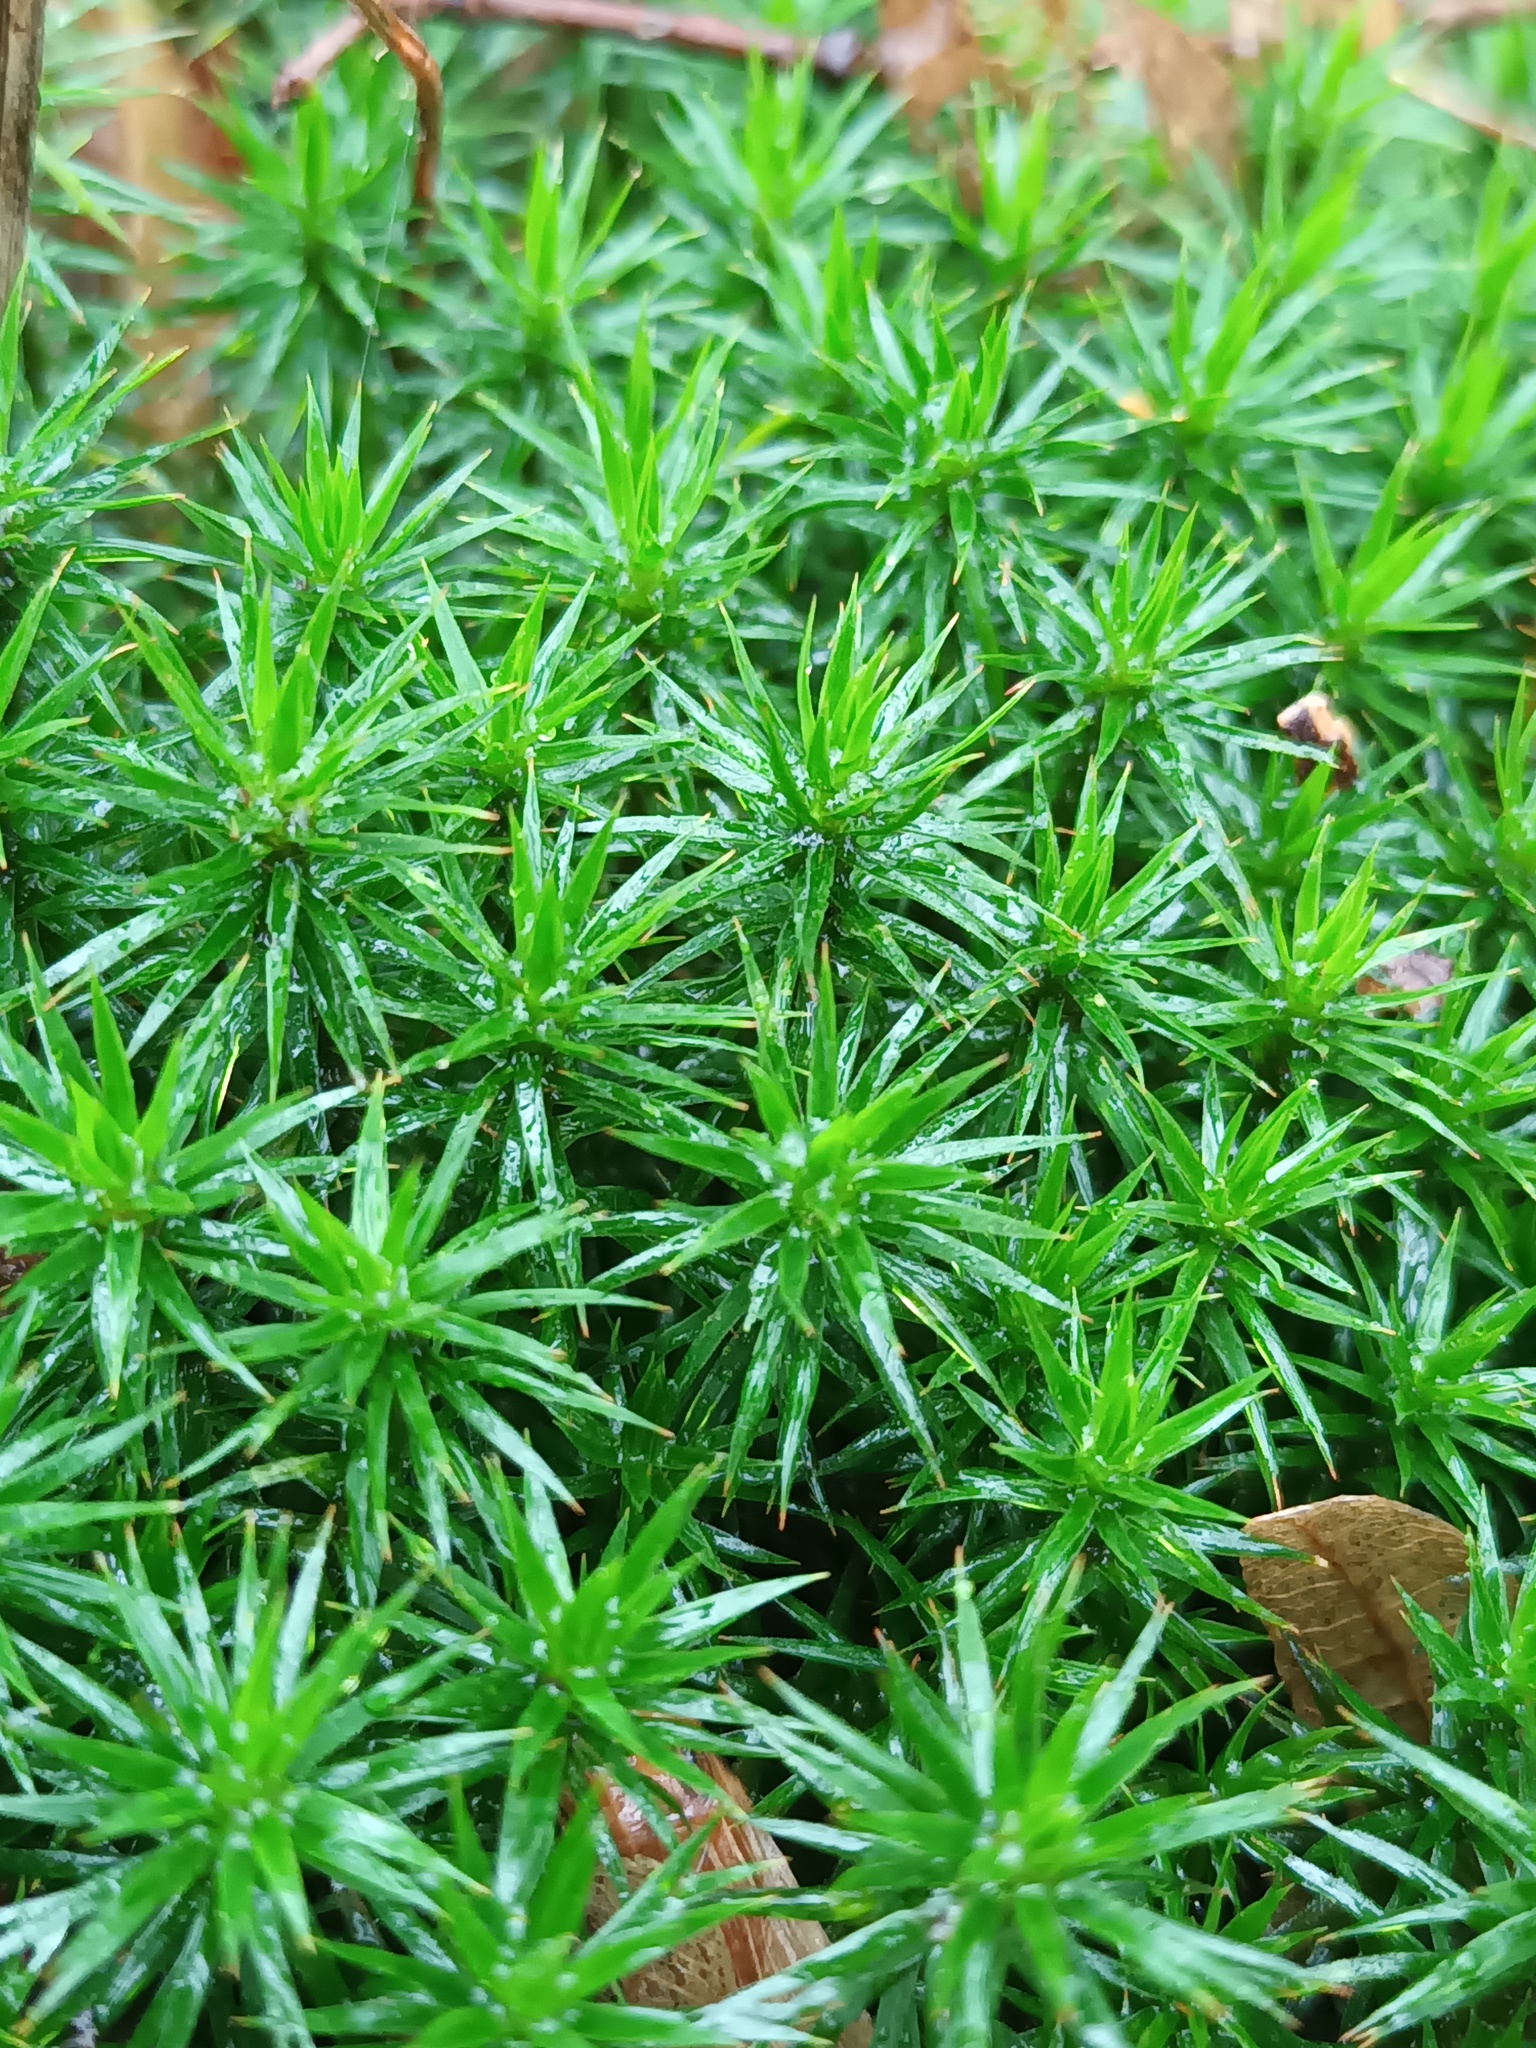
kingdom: Plantae
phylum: Bryophyta
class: Polytrichopsida
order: Polytrichales
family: Polytrichaceae
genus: Polytrichum
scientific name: Polytrichum formosum
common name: Bank haircap moss
